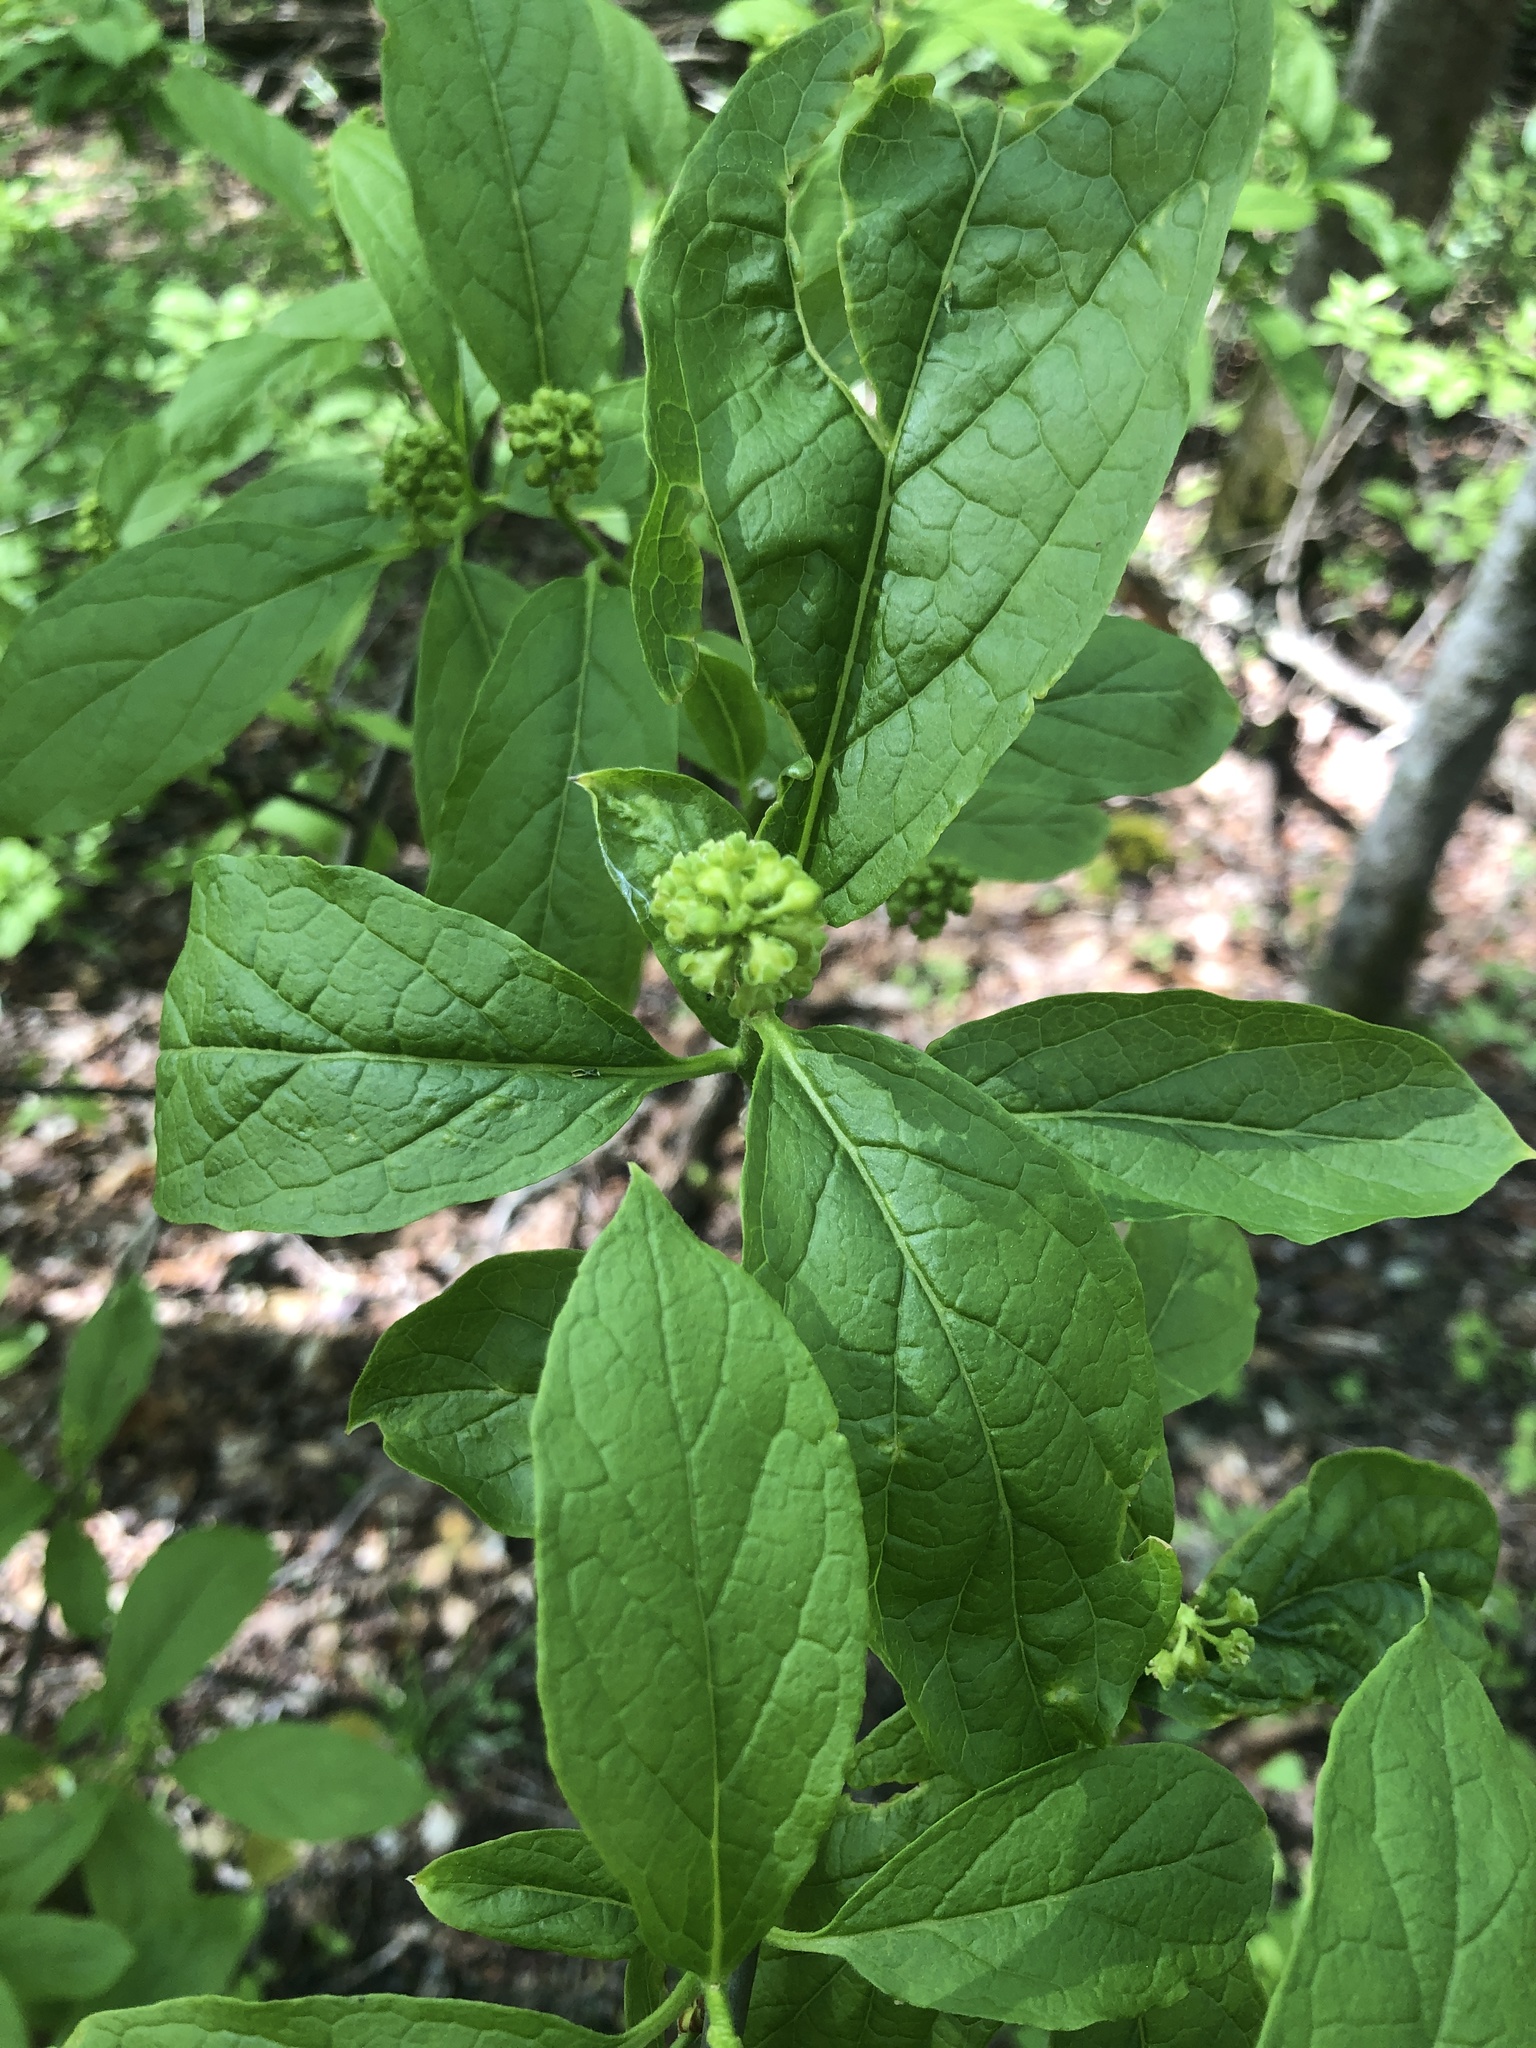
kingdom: Plantae
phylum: Tracheophyta
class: Magnoliopsida
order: Santalales
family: Cervantesiaceae
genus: Pyrularia
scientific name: Pyrularia pubera
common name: Oilnut
